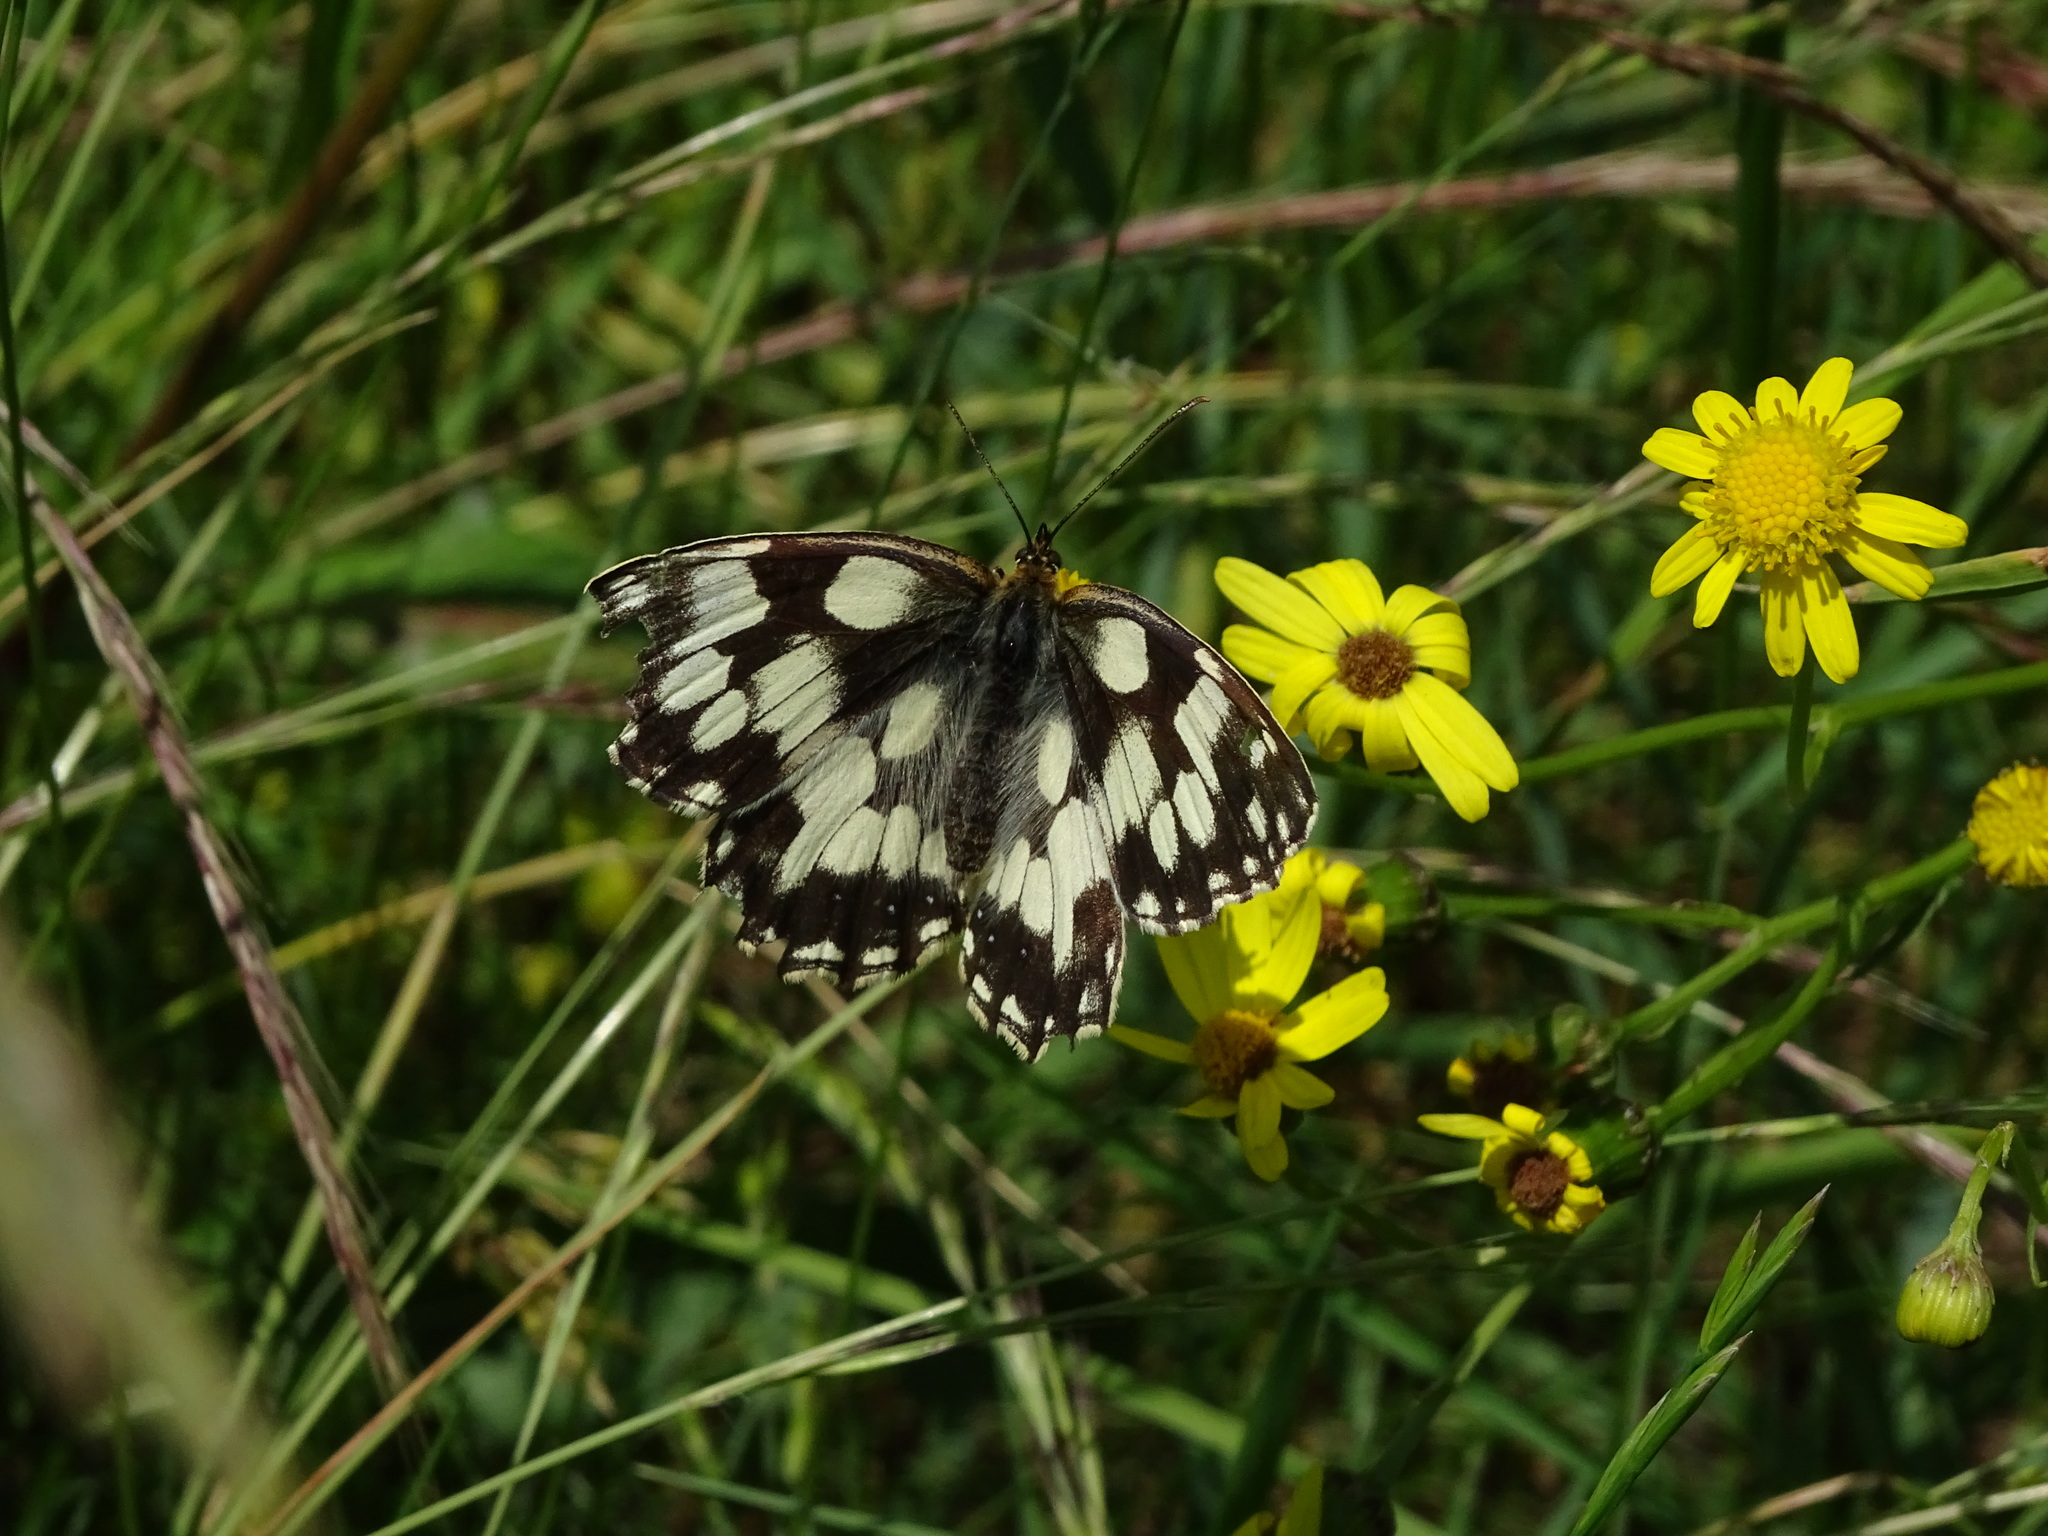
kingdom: Animalia
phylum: Arthropoda
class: Insecta
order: Lepidoptera
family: Nymphalidae
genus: Melanargia
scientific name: Melanargia galathea
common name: Marbled white
